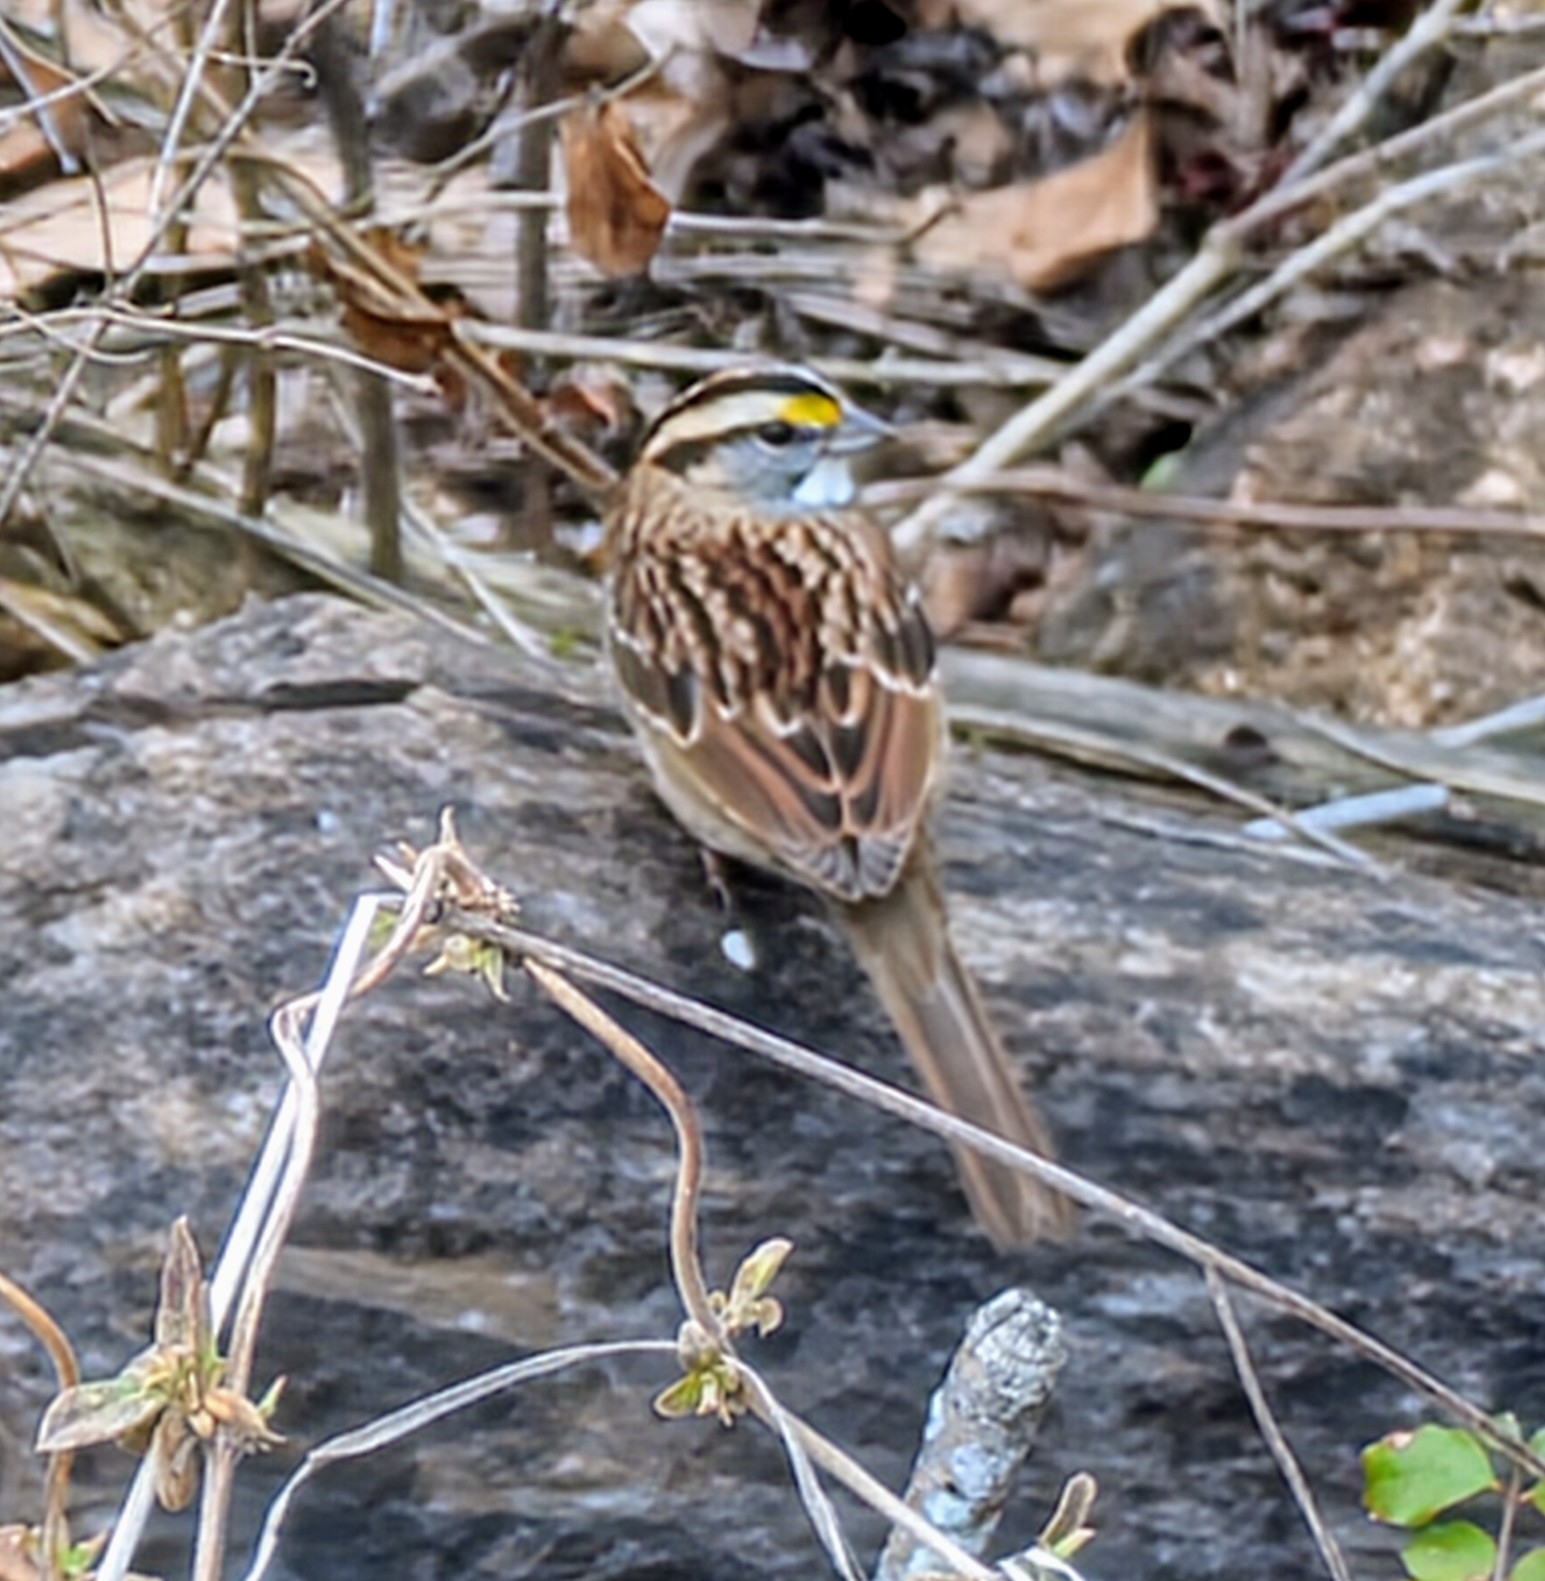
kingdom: Animalia
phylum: Chordata
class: Aves
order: Passeriformes
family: Passerellidae
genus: Zonotrichia
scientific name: Zonotrichia albicollis
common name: White-throated sparrow
